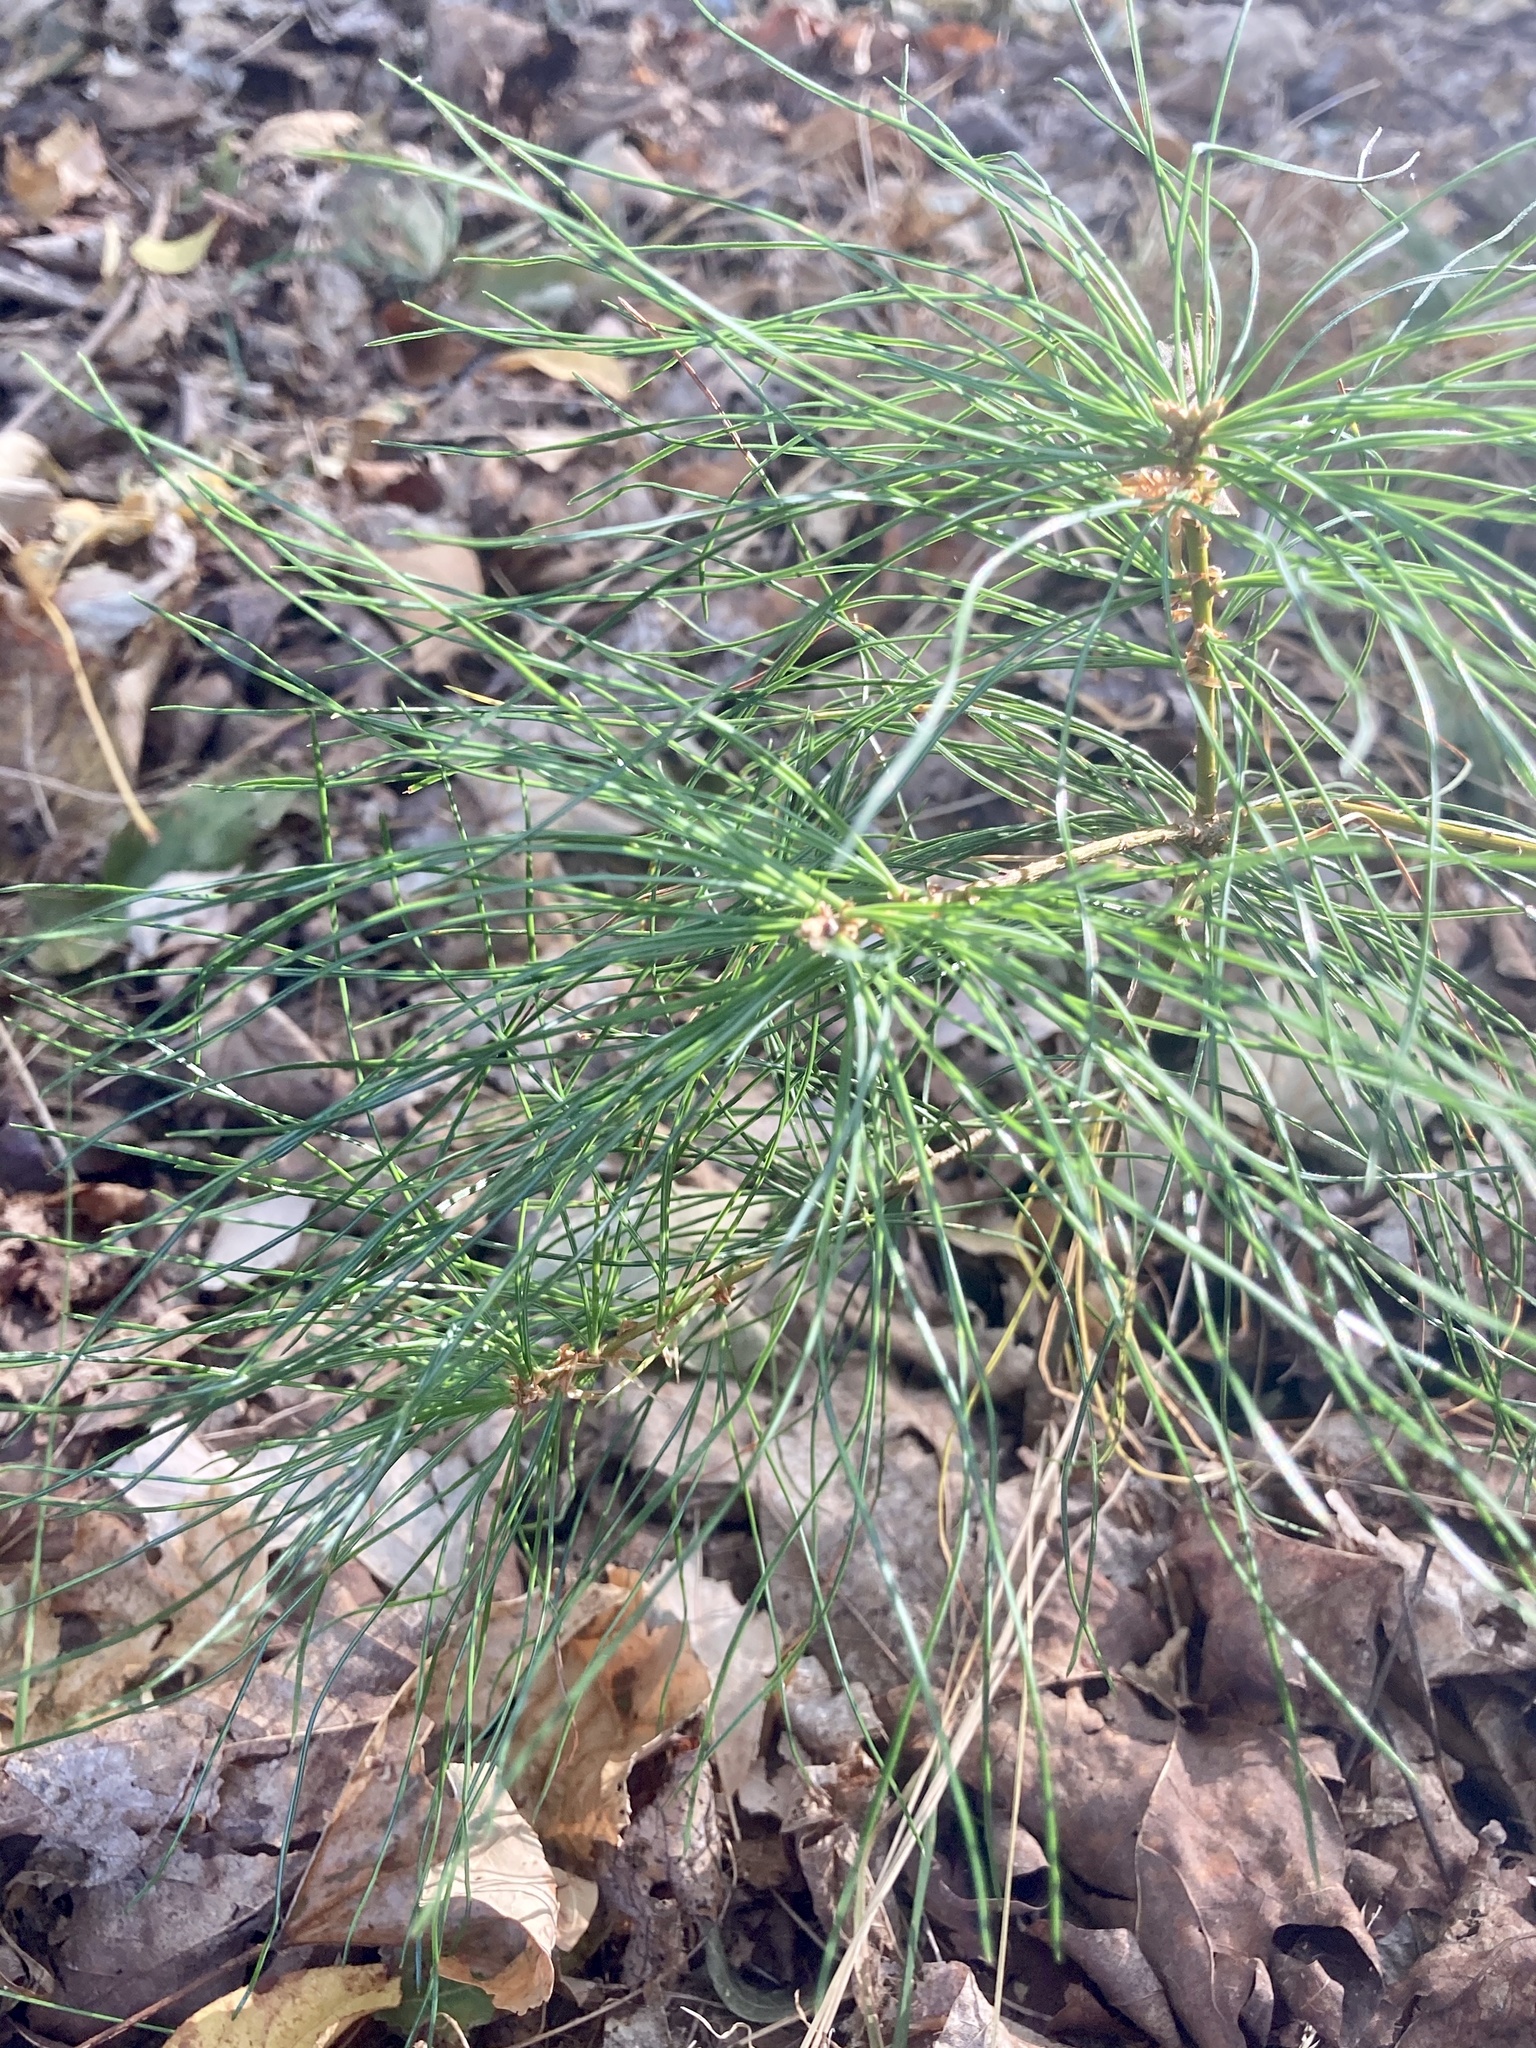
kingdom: Plantae
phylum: Tracheophyta
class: Pinopsida
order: Pinales
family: Pinaceae
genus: Pinus
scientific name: Pinus strobus
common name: Weymouth pine
